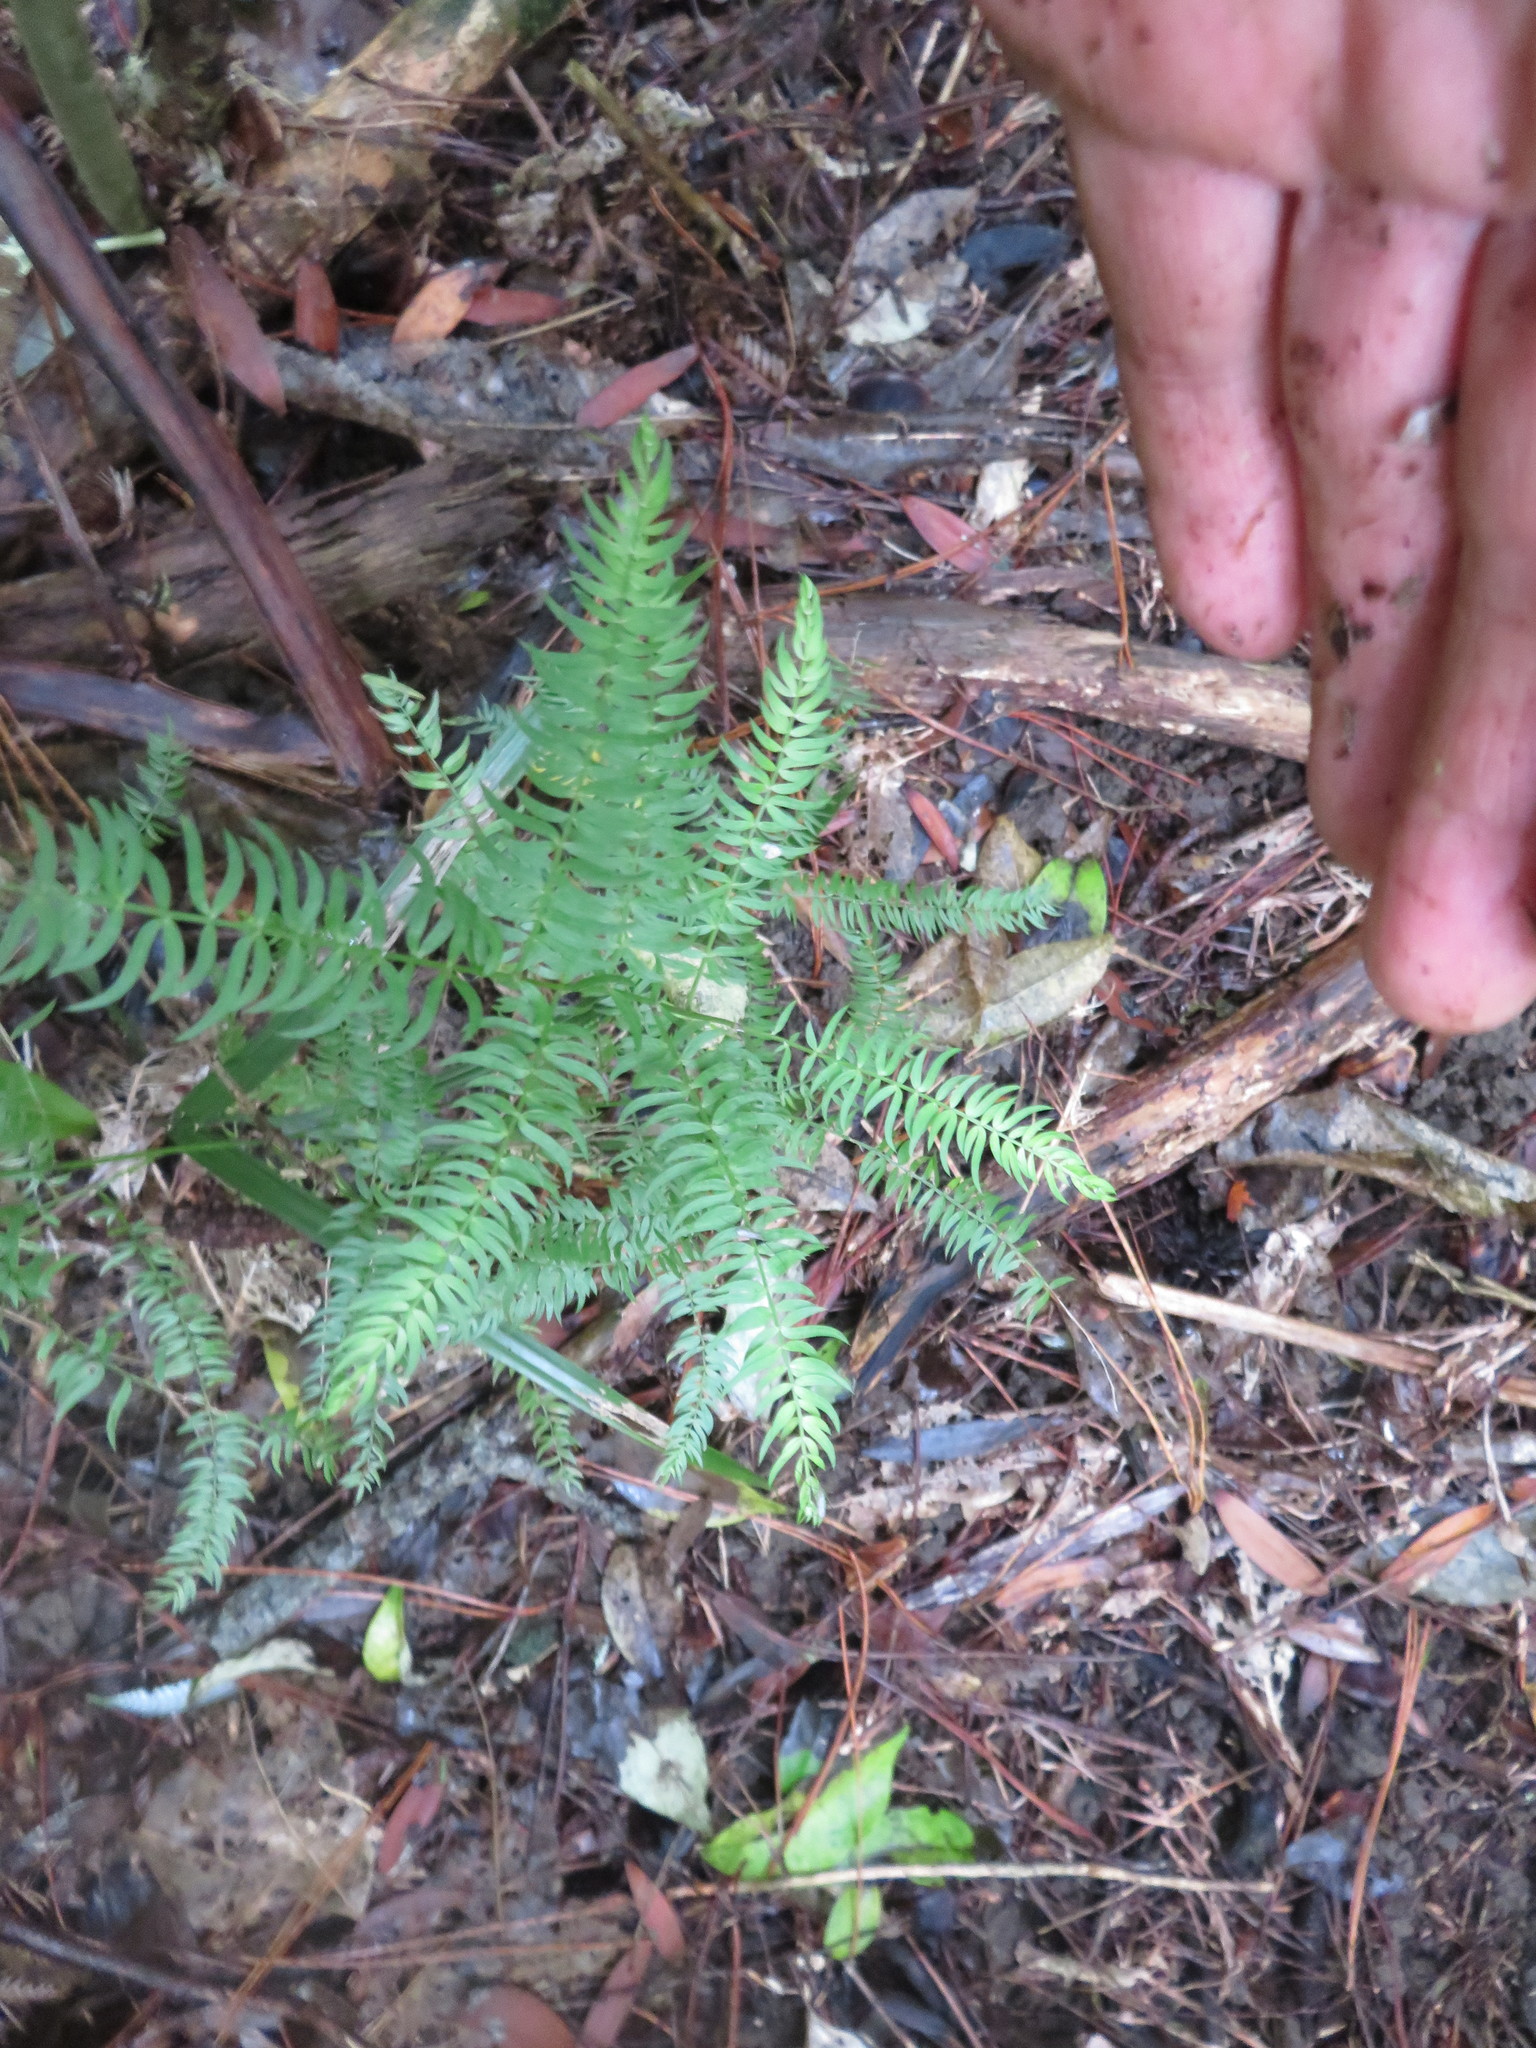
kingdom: Plantae
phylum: Tracheophyta
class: Liliopsida
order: Asparagales
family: Asparagaceae
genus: Asparagus
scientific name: Asparagus scandens
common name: Asparagus-fern
